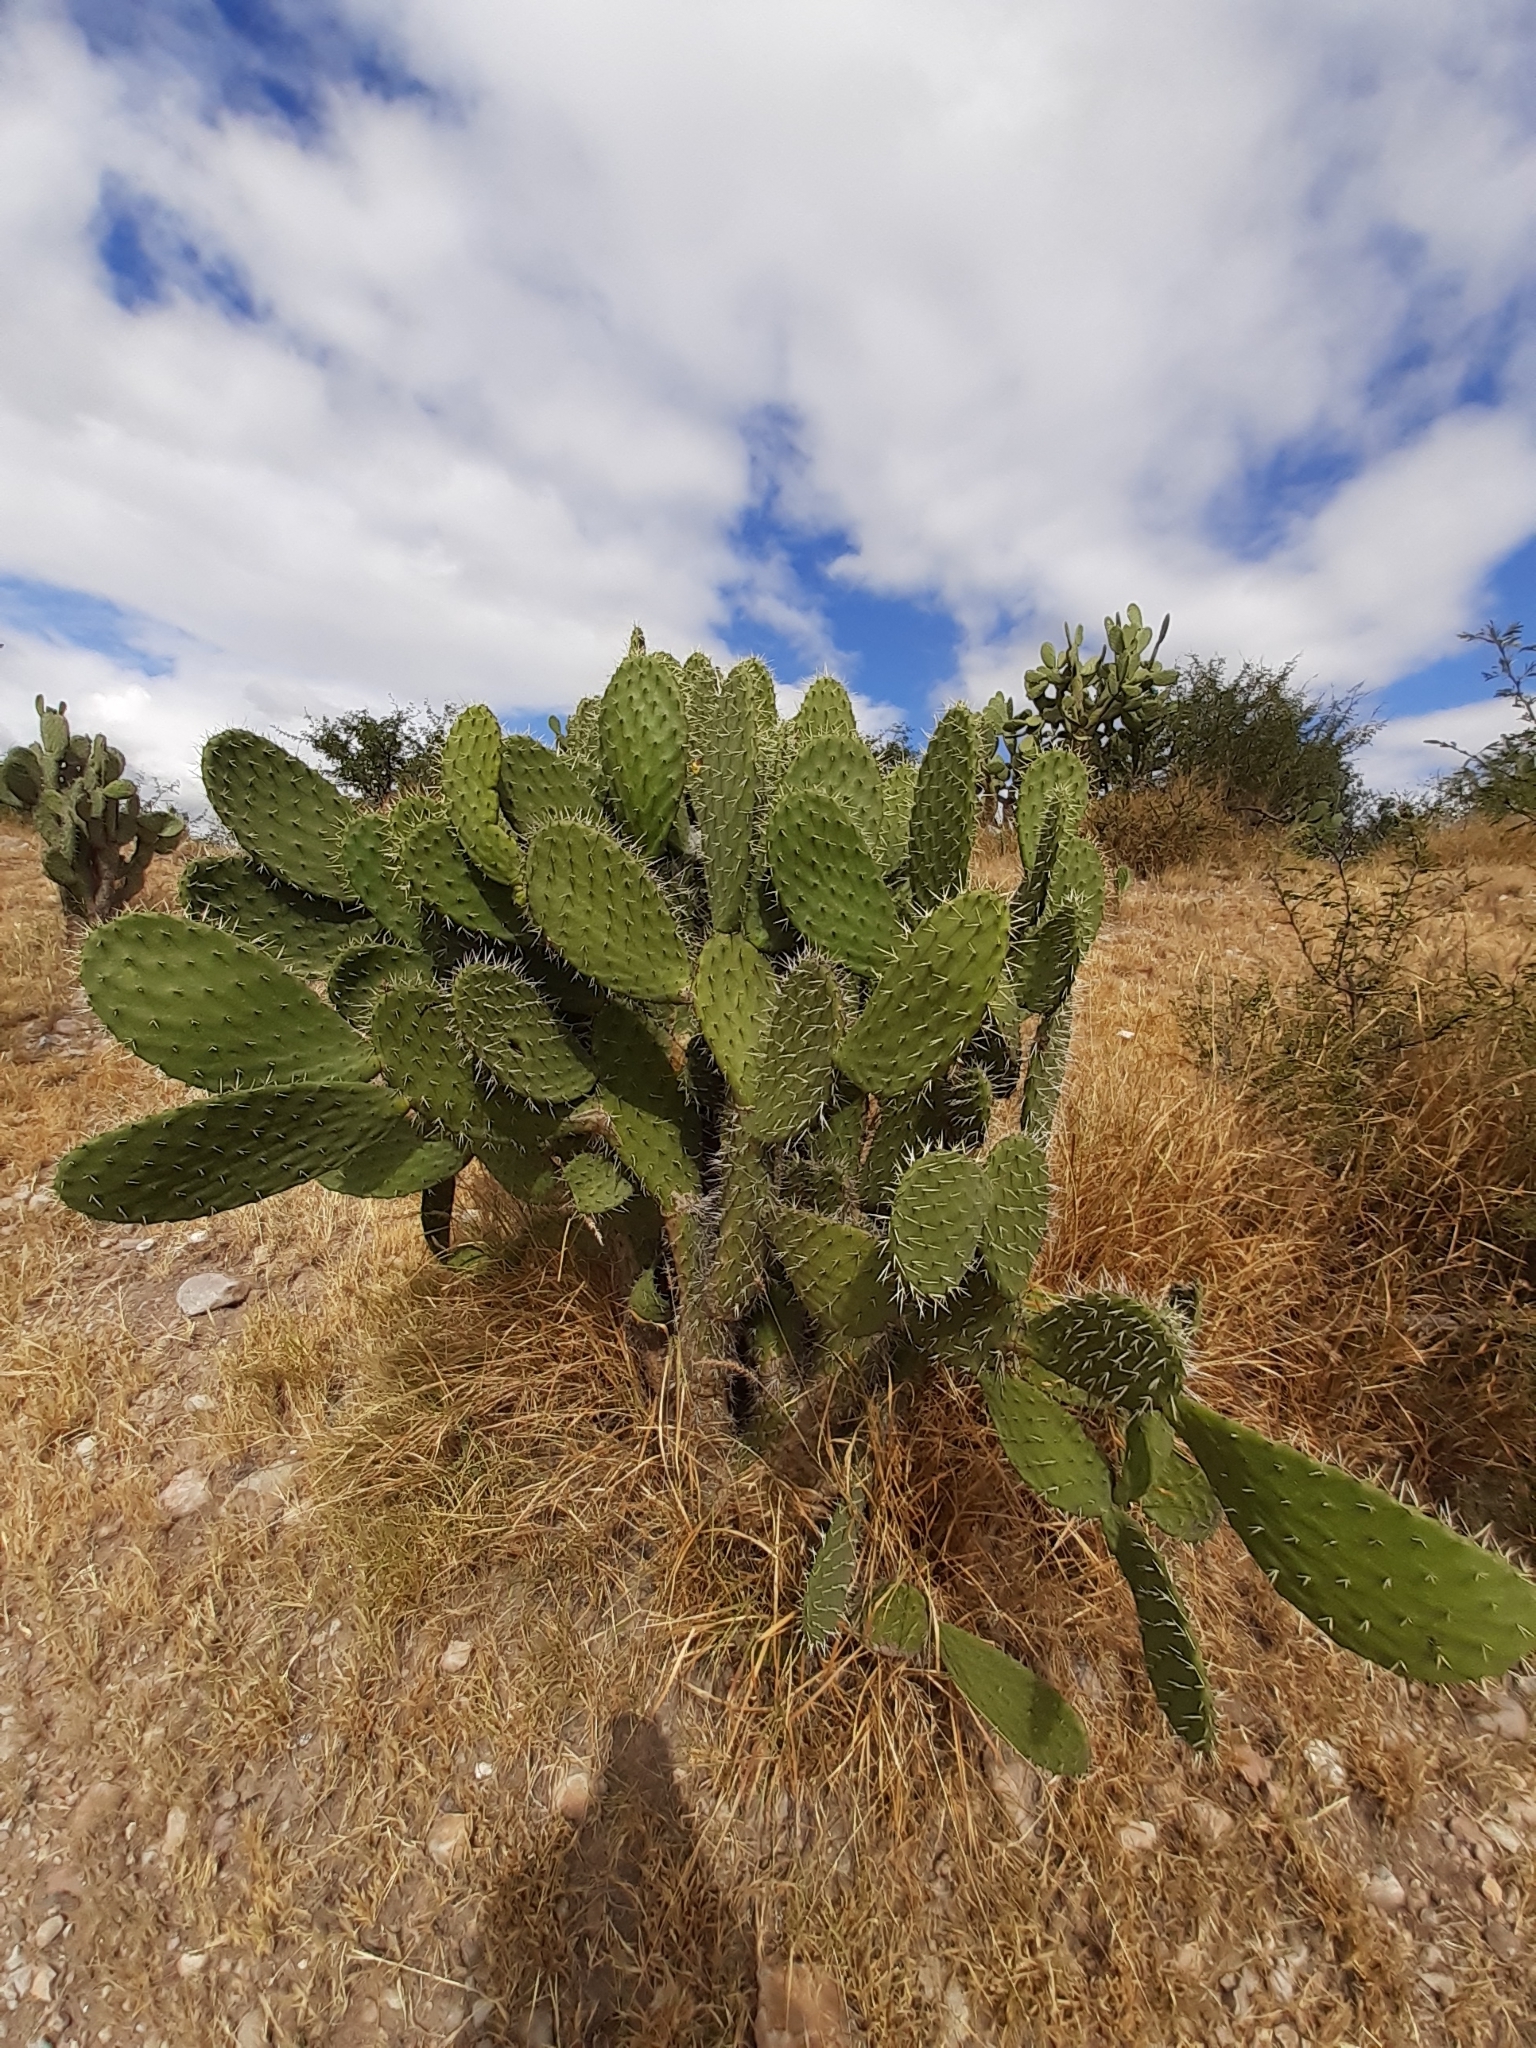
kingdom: Plantae
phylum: Tracheophyta
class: Magnoliopsida
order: Caryophyllales
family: Cactaceae
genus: Opuntia
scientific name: Opuntia lasiacantha
